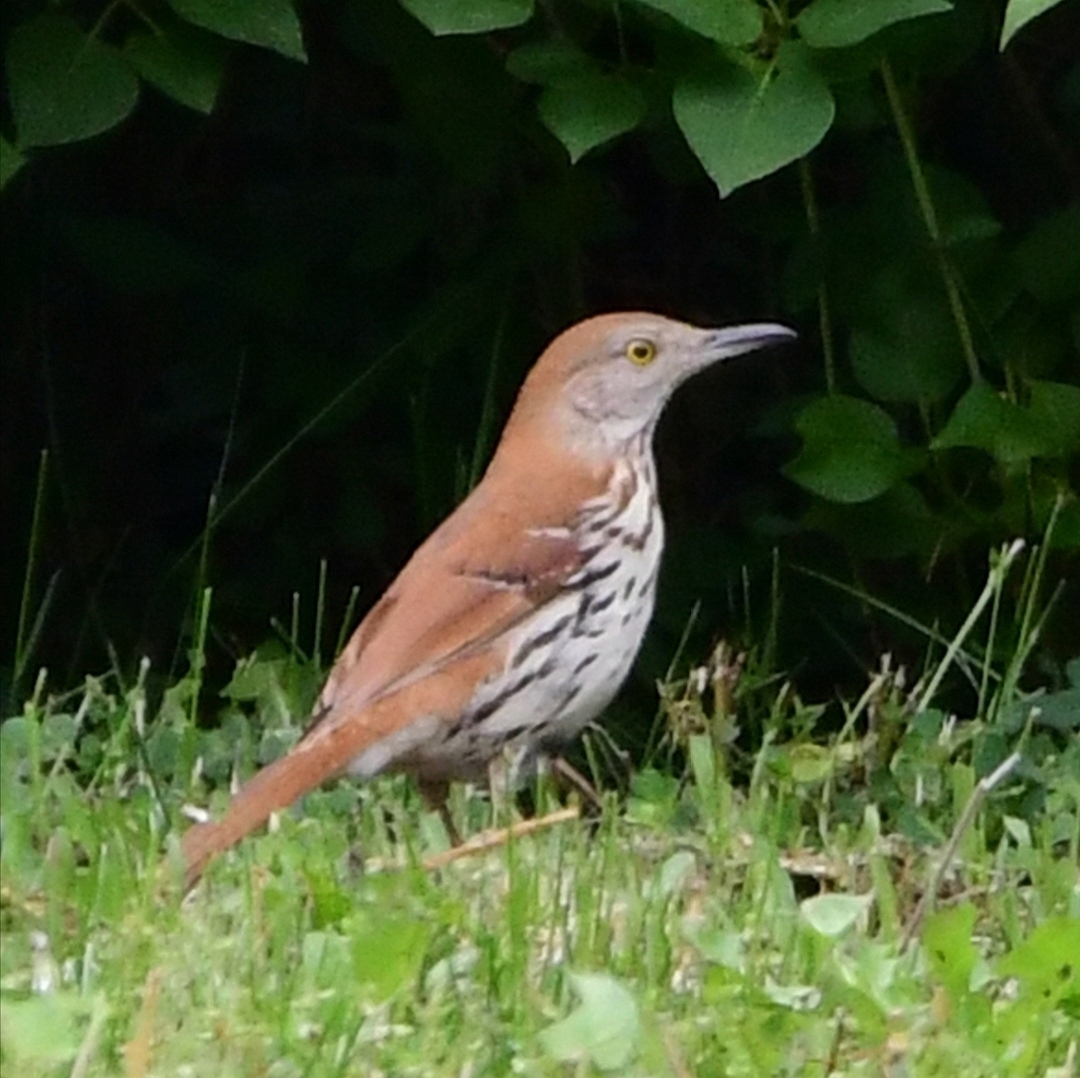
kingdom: Animalia
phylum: Chordata
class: Aves
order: Passeriformes
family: Mimidae
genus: Toxostoma
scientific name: Toxostoma rufum
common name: Brown thrasher
